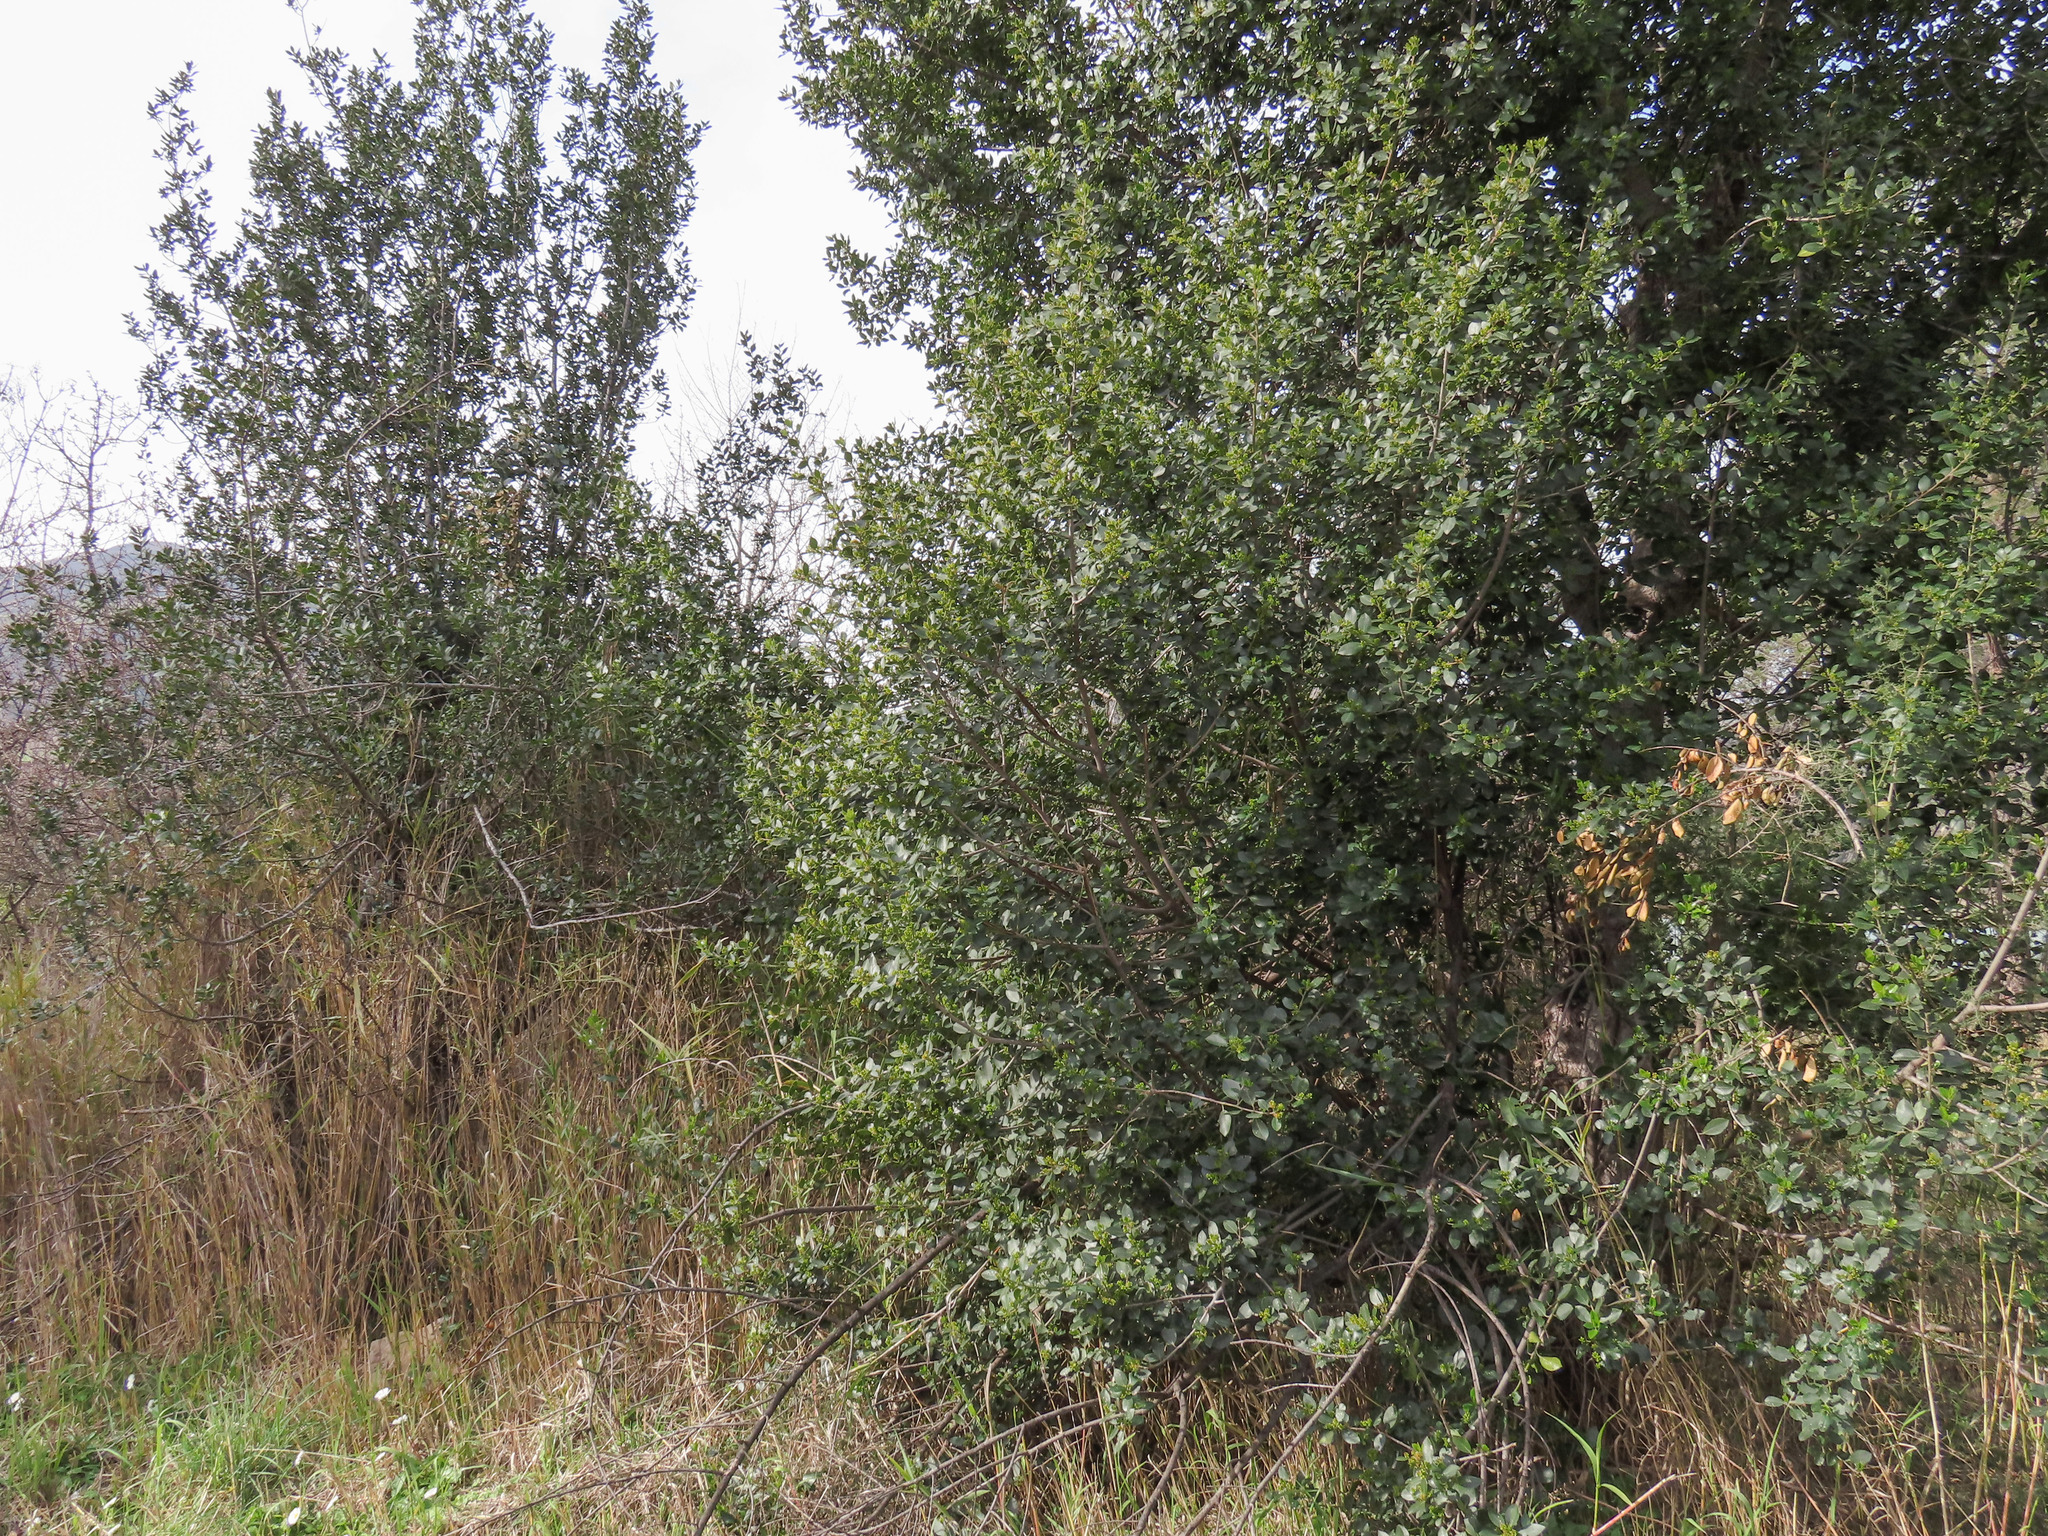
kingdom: Plantae
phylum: Tracheophyta
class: Magnoliopsida
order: Rosales
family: Rhamnaceae
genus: Rhamnus
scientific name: Rhamnus alaternus
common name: Mediterranean buckthorn
